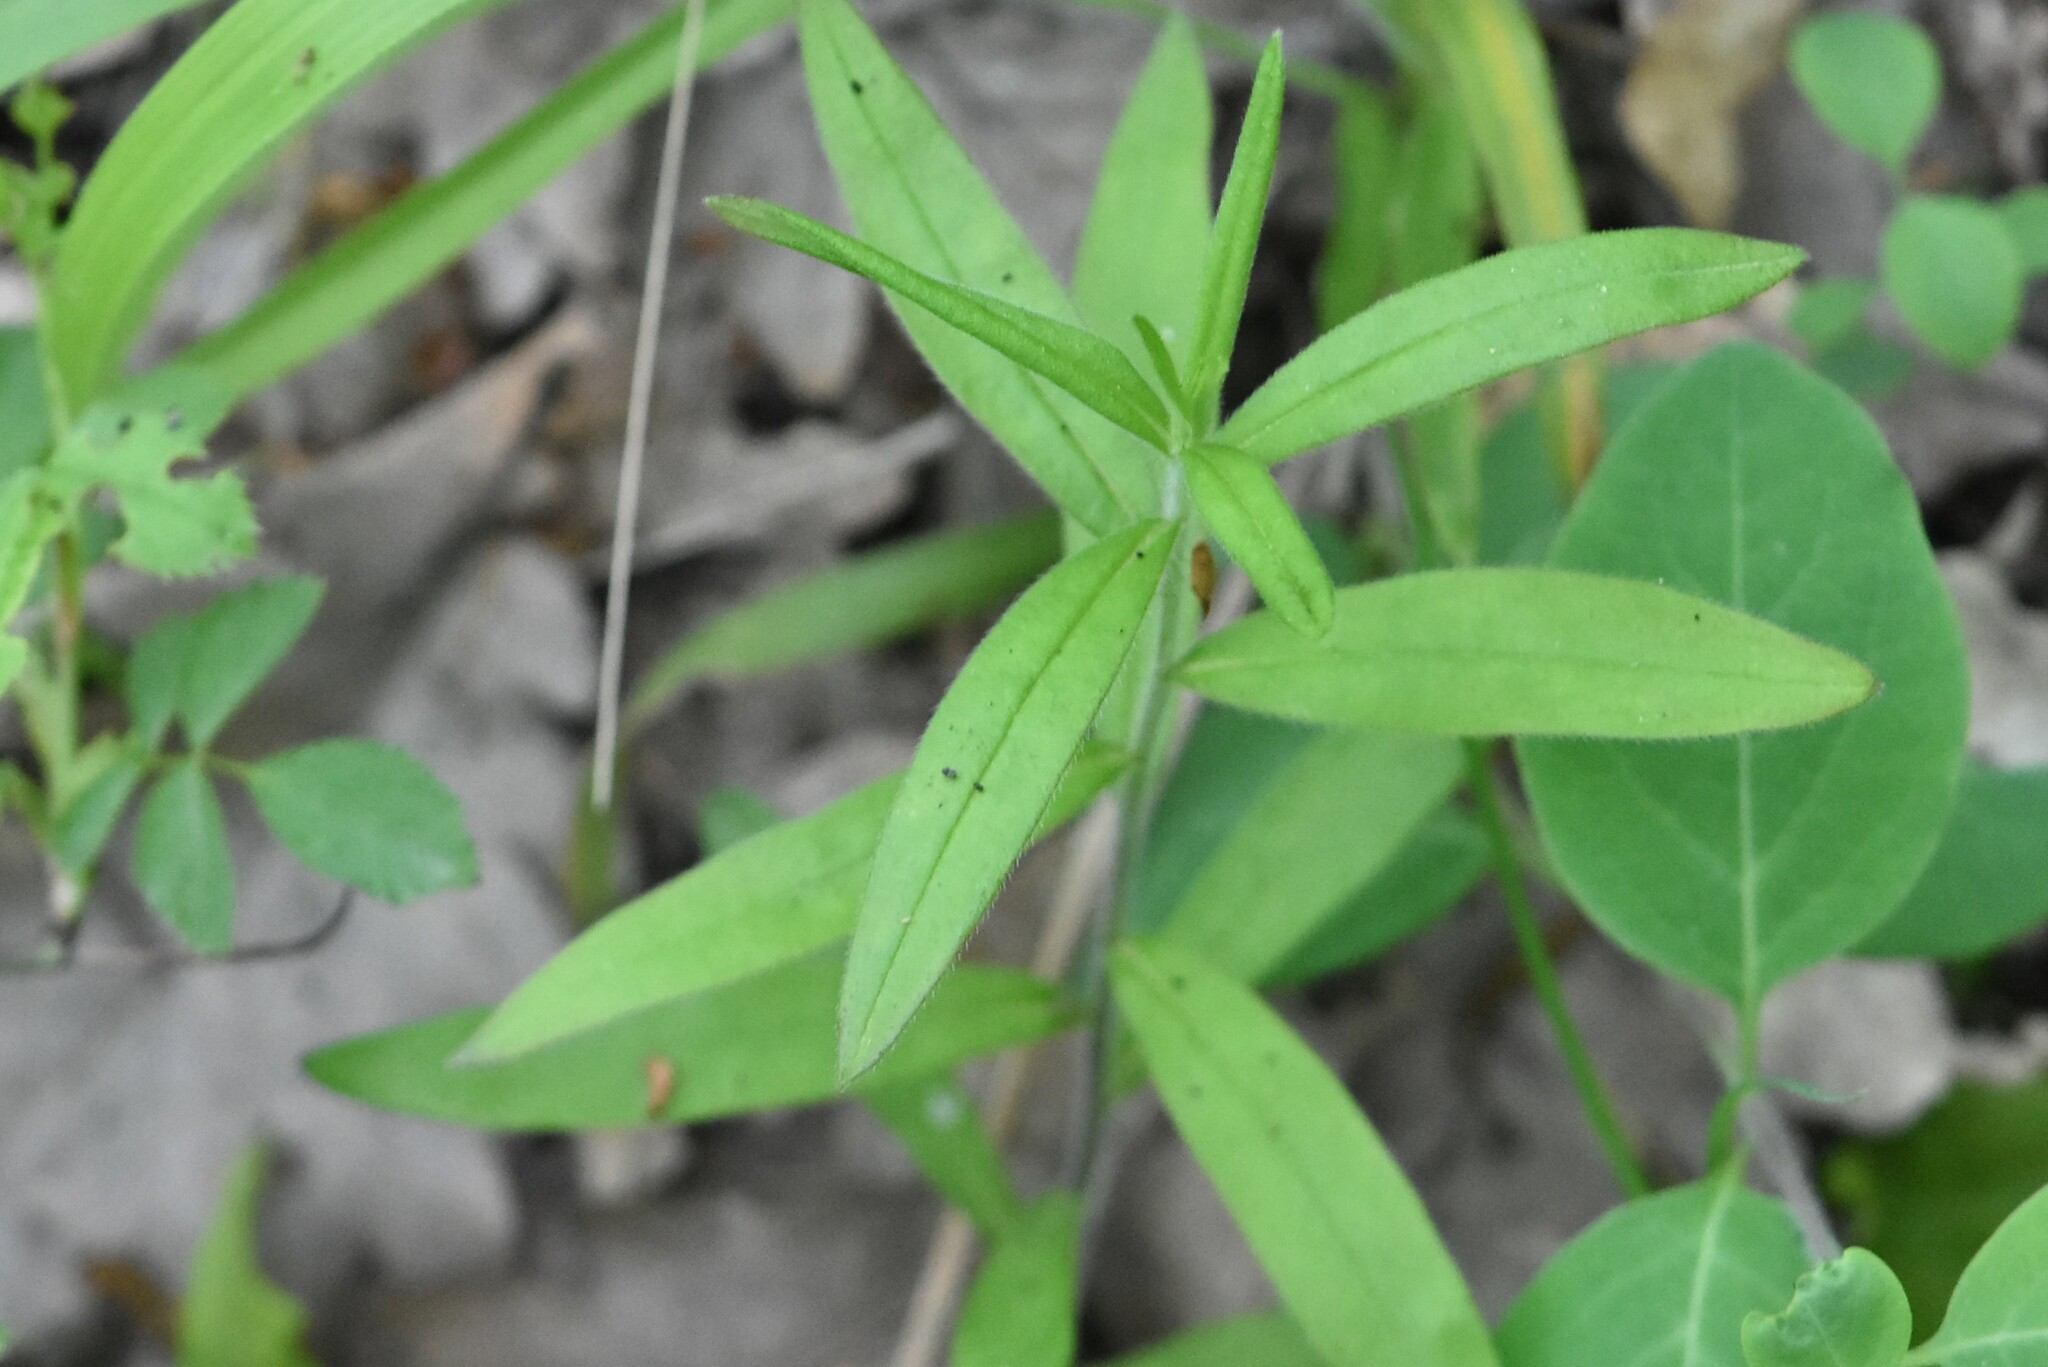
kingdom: Plantae
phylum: Tracheophyta
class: Magnoliopsida
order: Boraginales
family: Boraginaceae
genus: Aegonychon
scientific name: Aegonychon purpurocaeruleum
